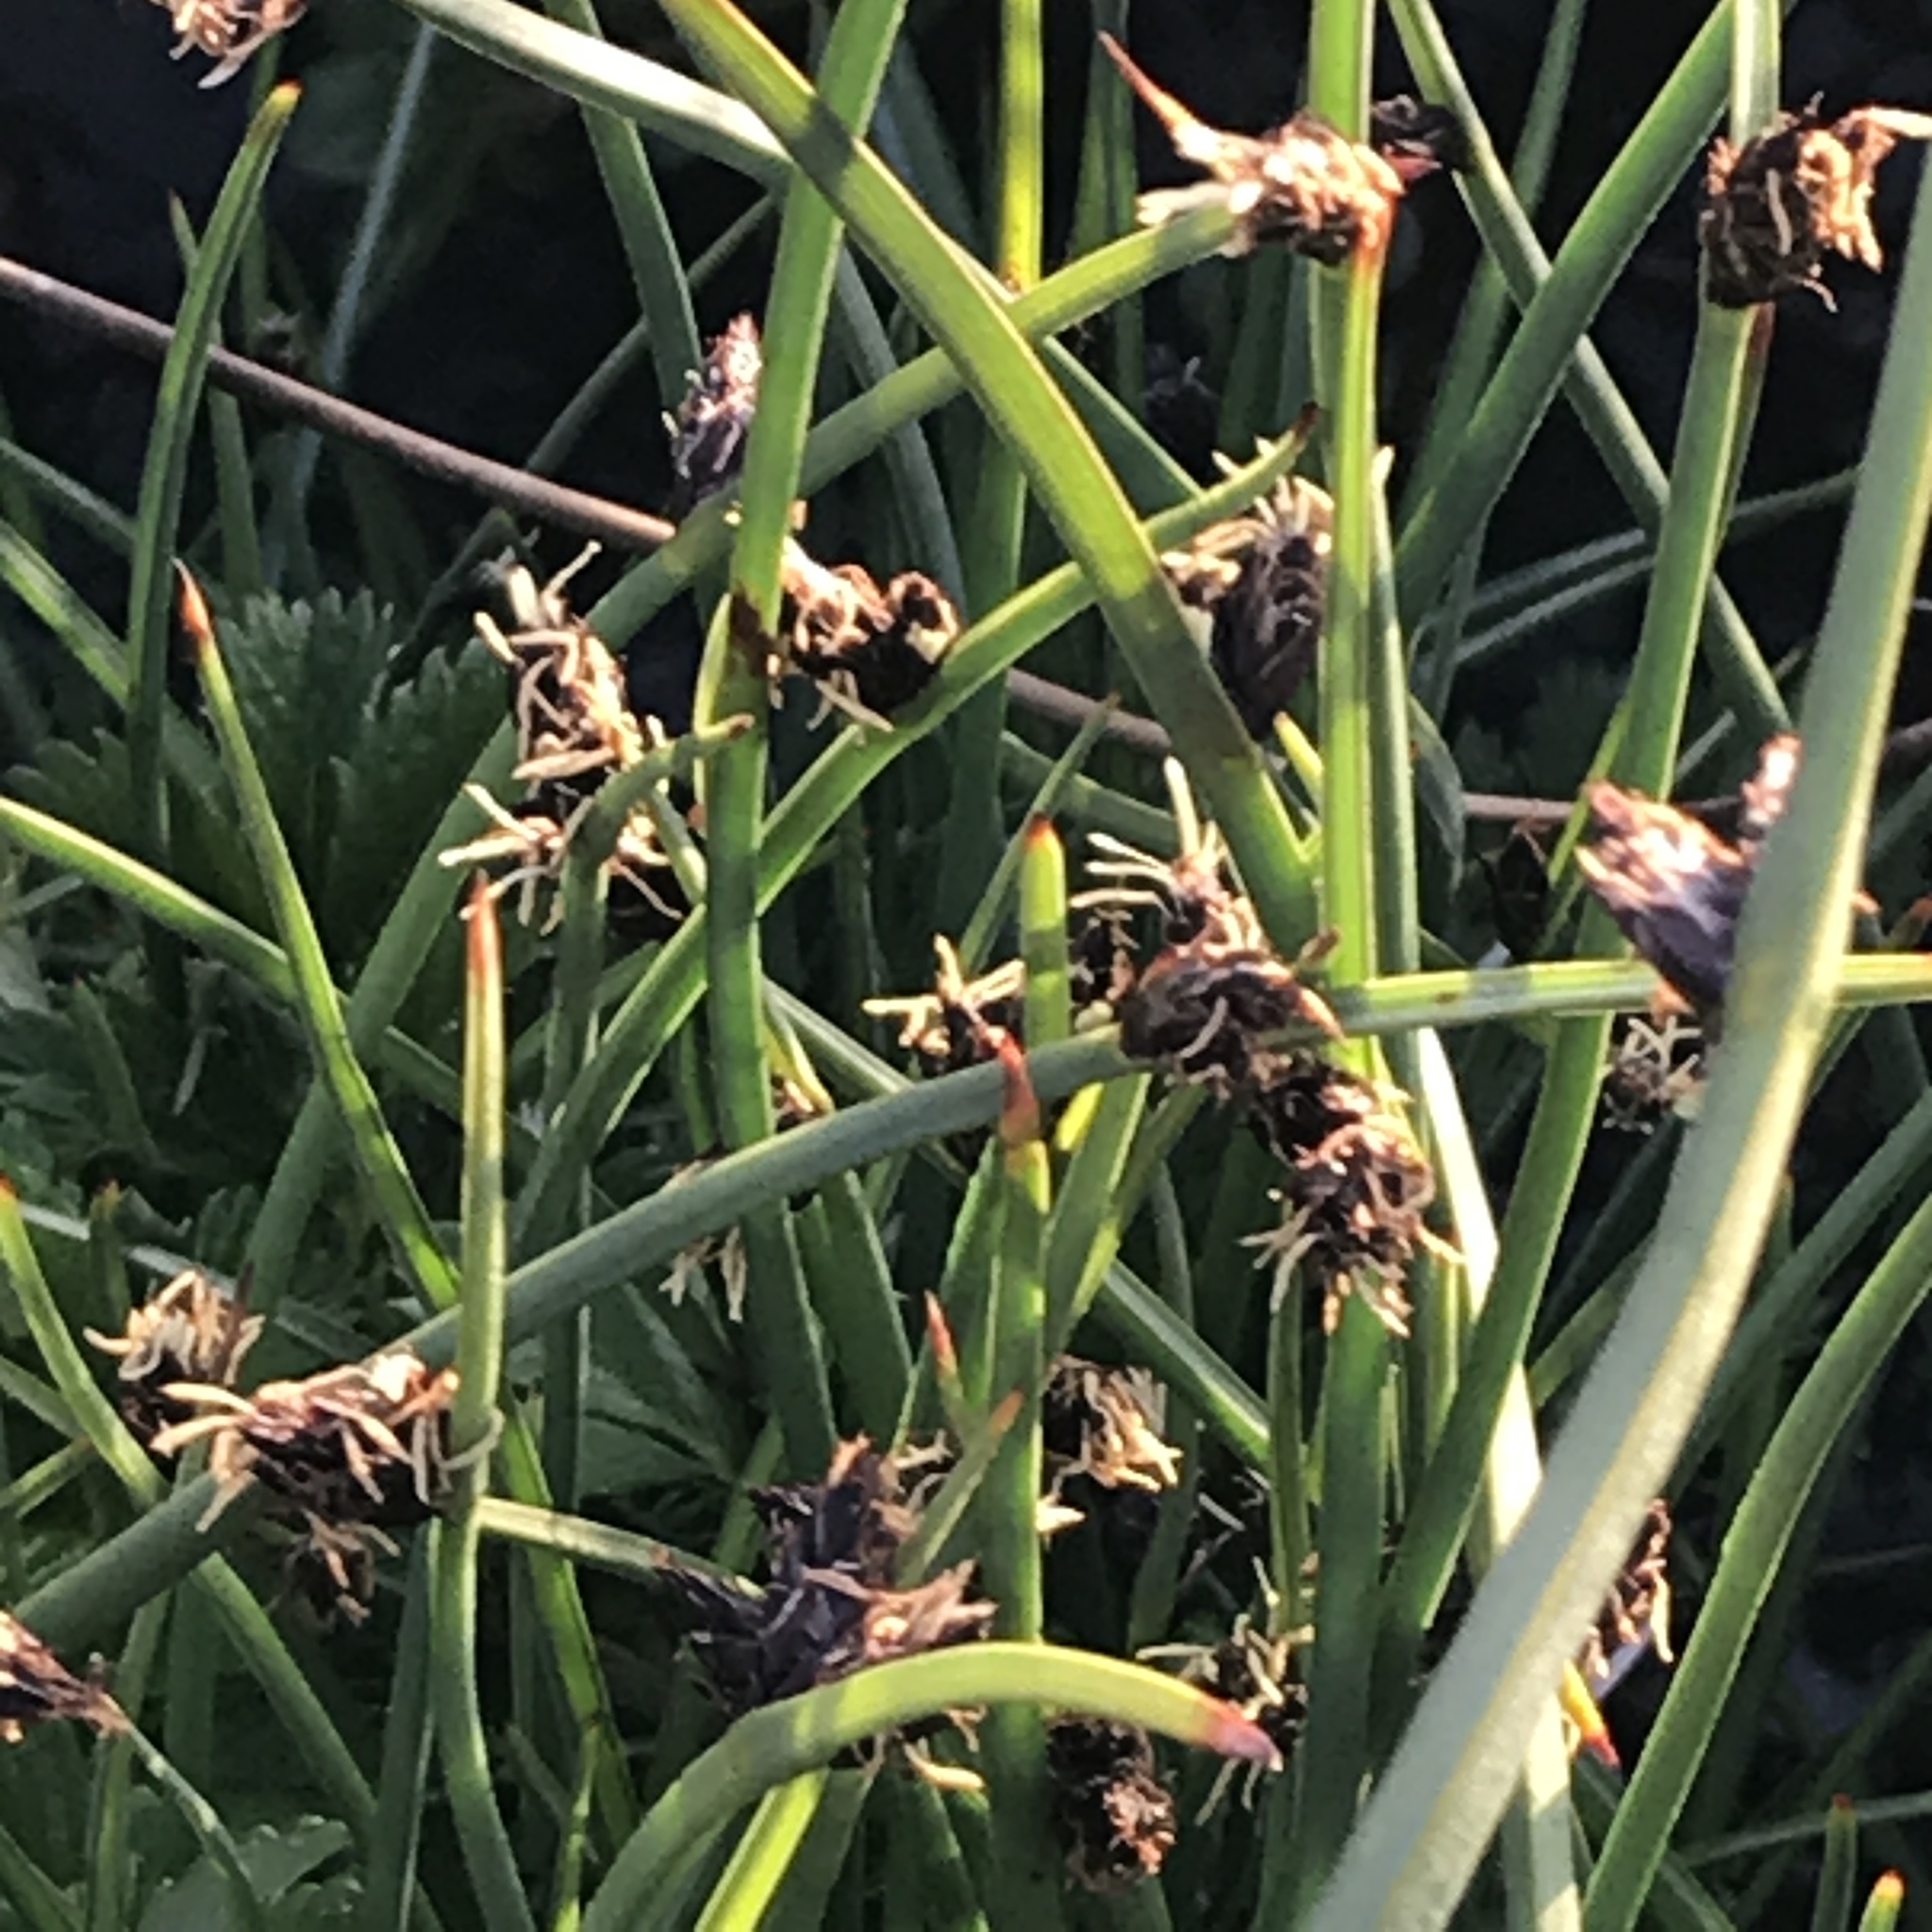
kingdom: Plantae
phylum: Tracheophyta
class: Liliopsida
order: Poales
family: Cyperaceae
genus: Schoenoplectus
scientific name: Schoenoplectus pungens
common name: Sharp club-rush
